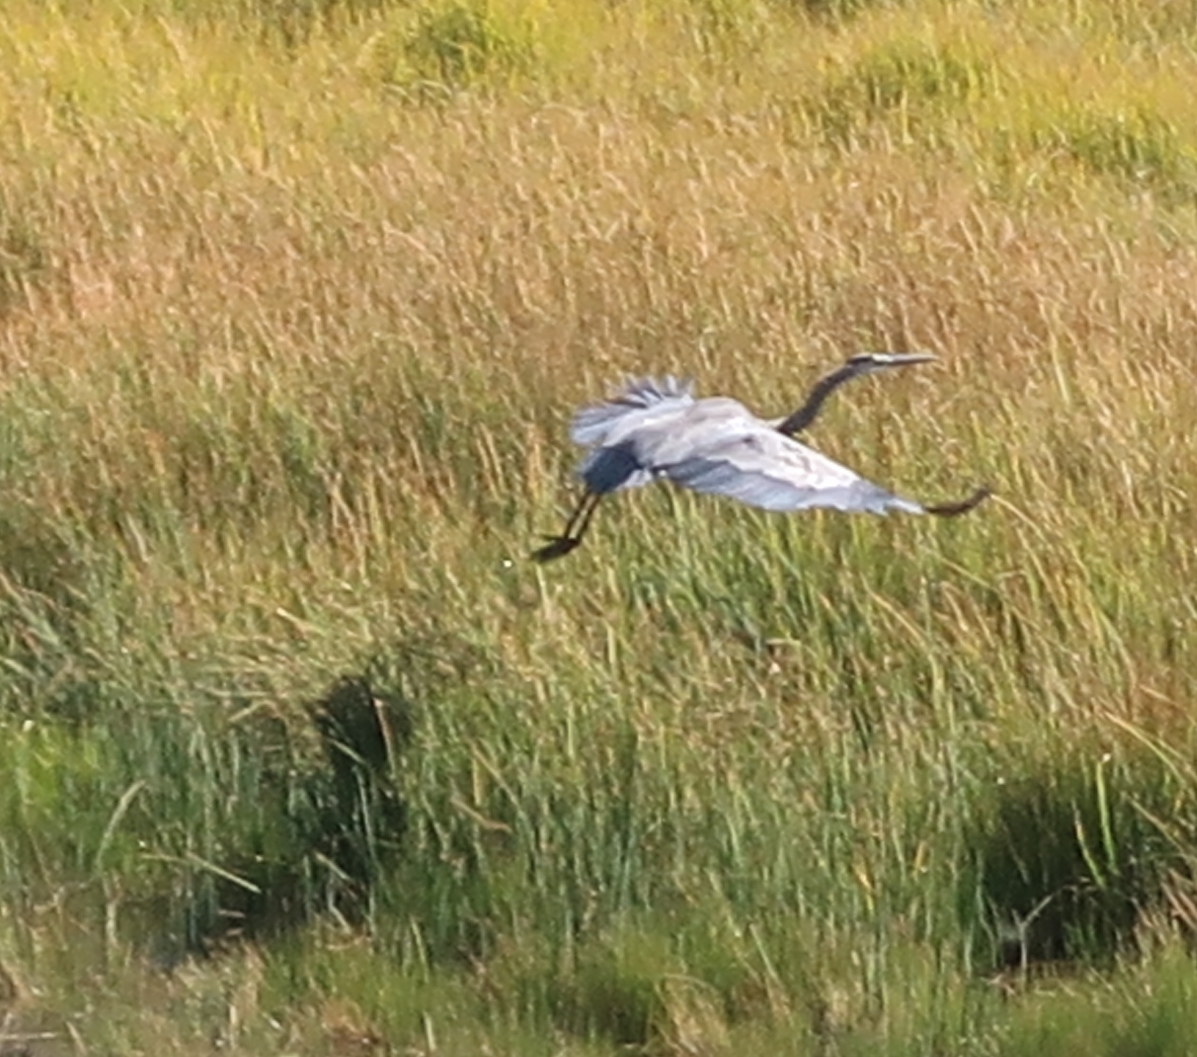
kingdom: Animalia
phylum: Chordata
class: Aves
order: Pelecaniformes
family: Ardeidae
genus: Ardea
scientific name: Ardea herodias
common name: Great blue heron
